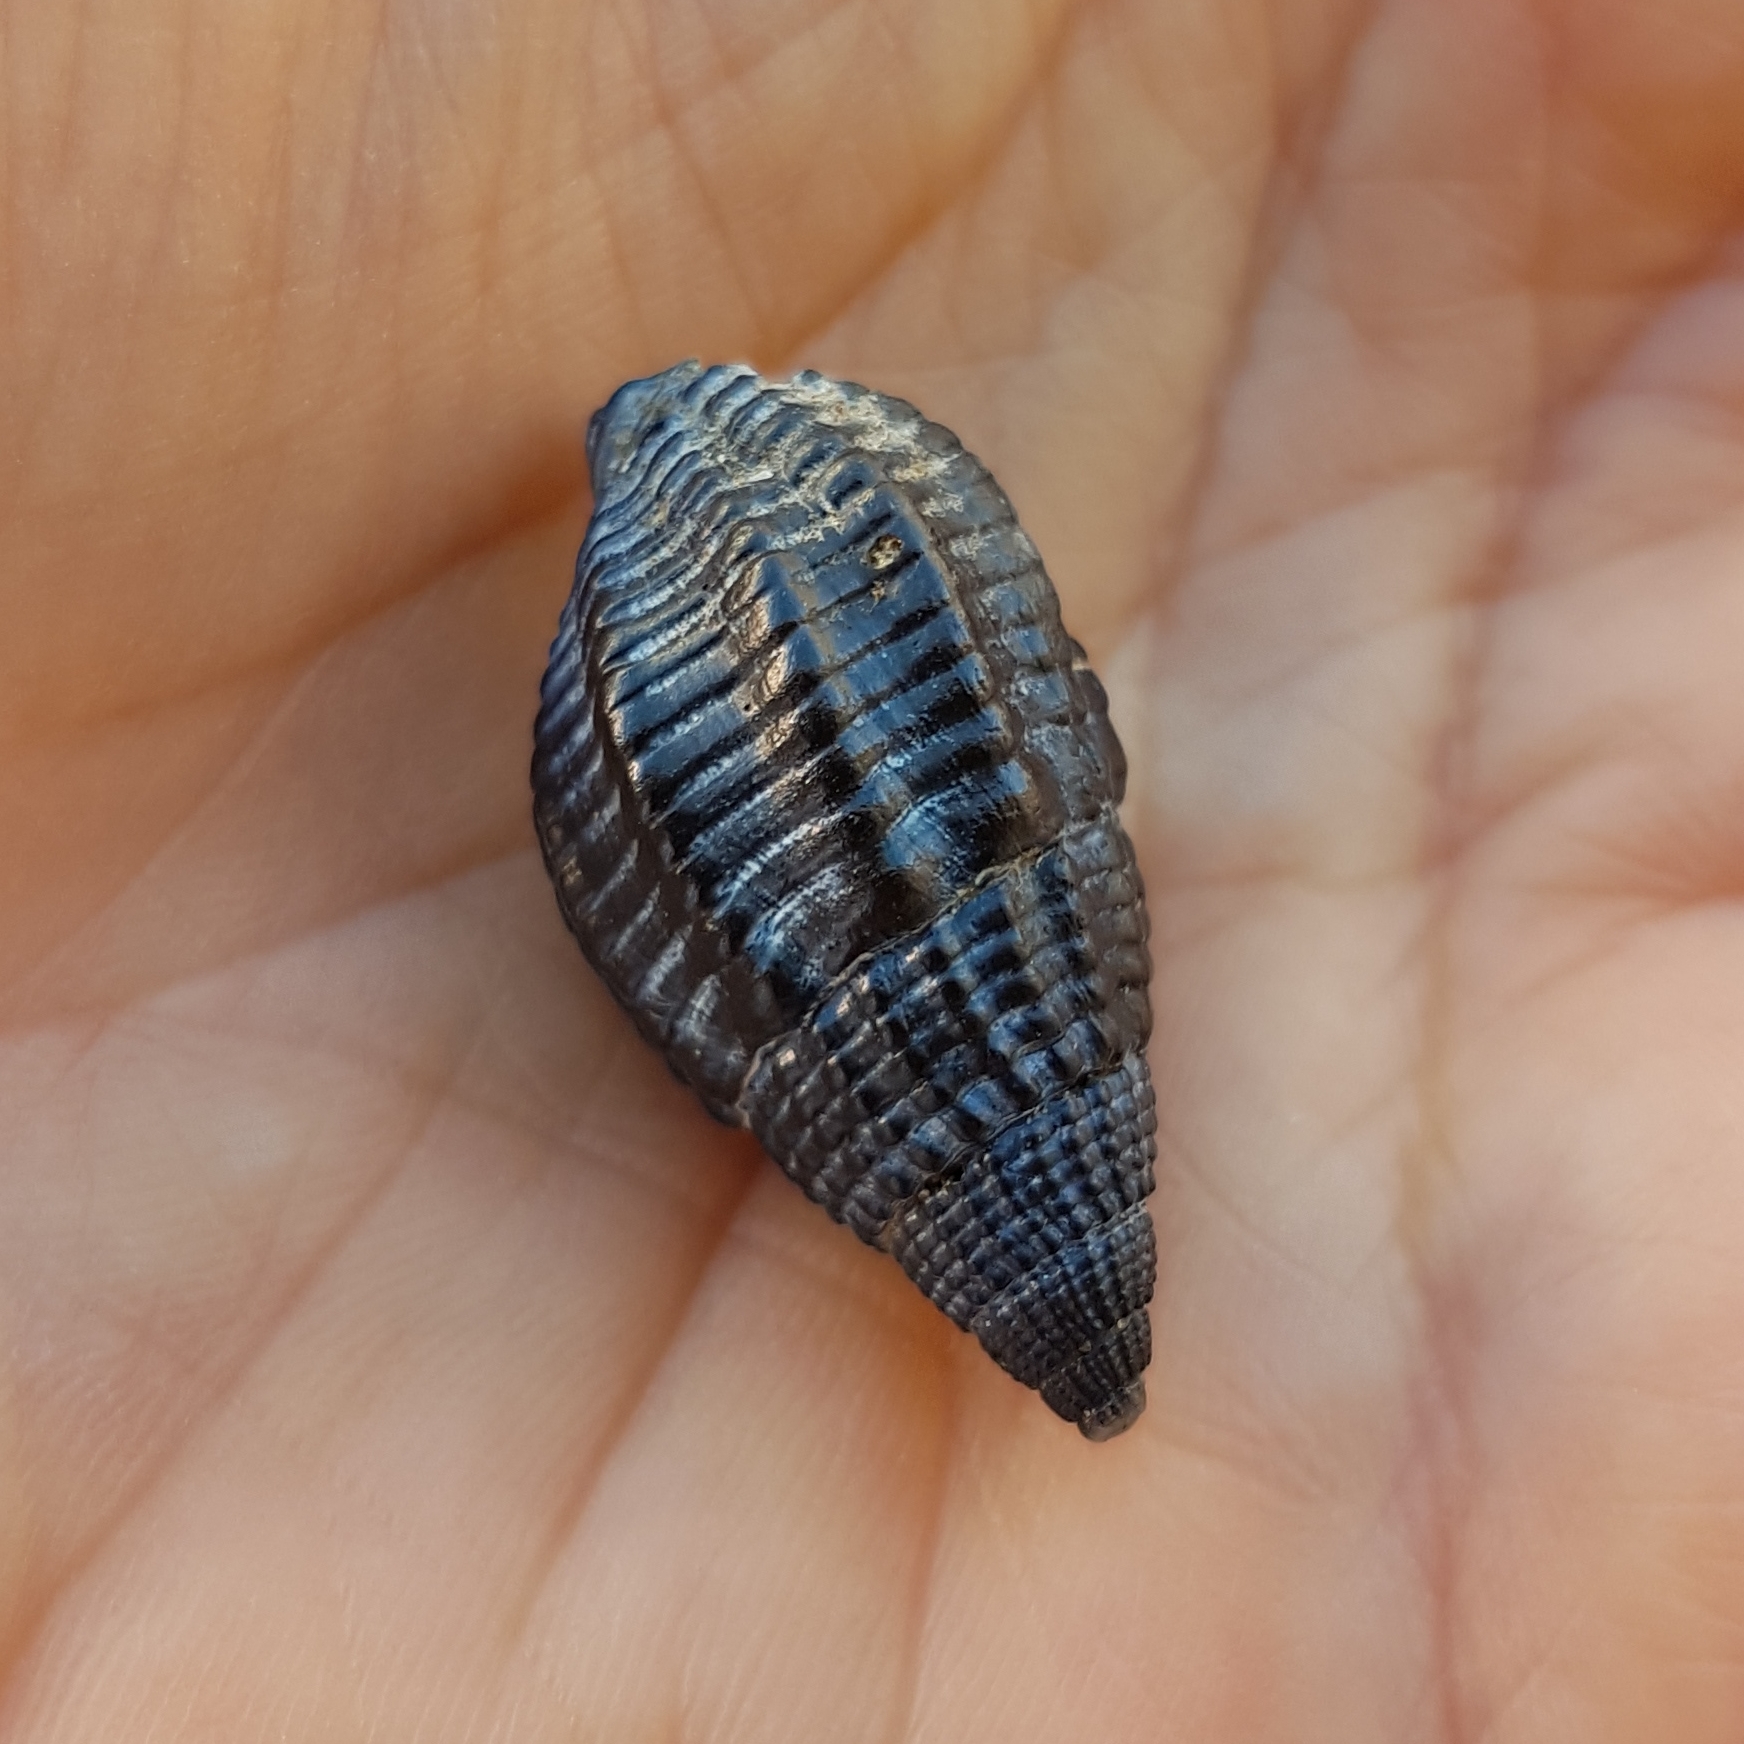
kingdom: Animalia
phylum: Mollusca
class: Gastropoda
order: Neogastropoda
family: Nassariidae
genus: Tritia
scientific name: Tritia nitida
